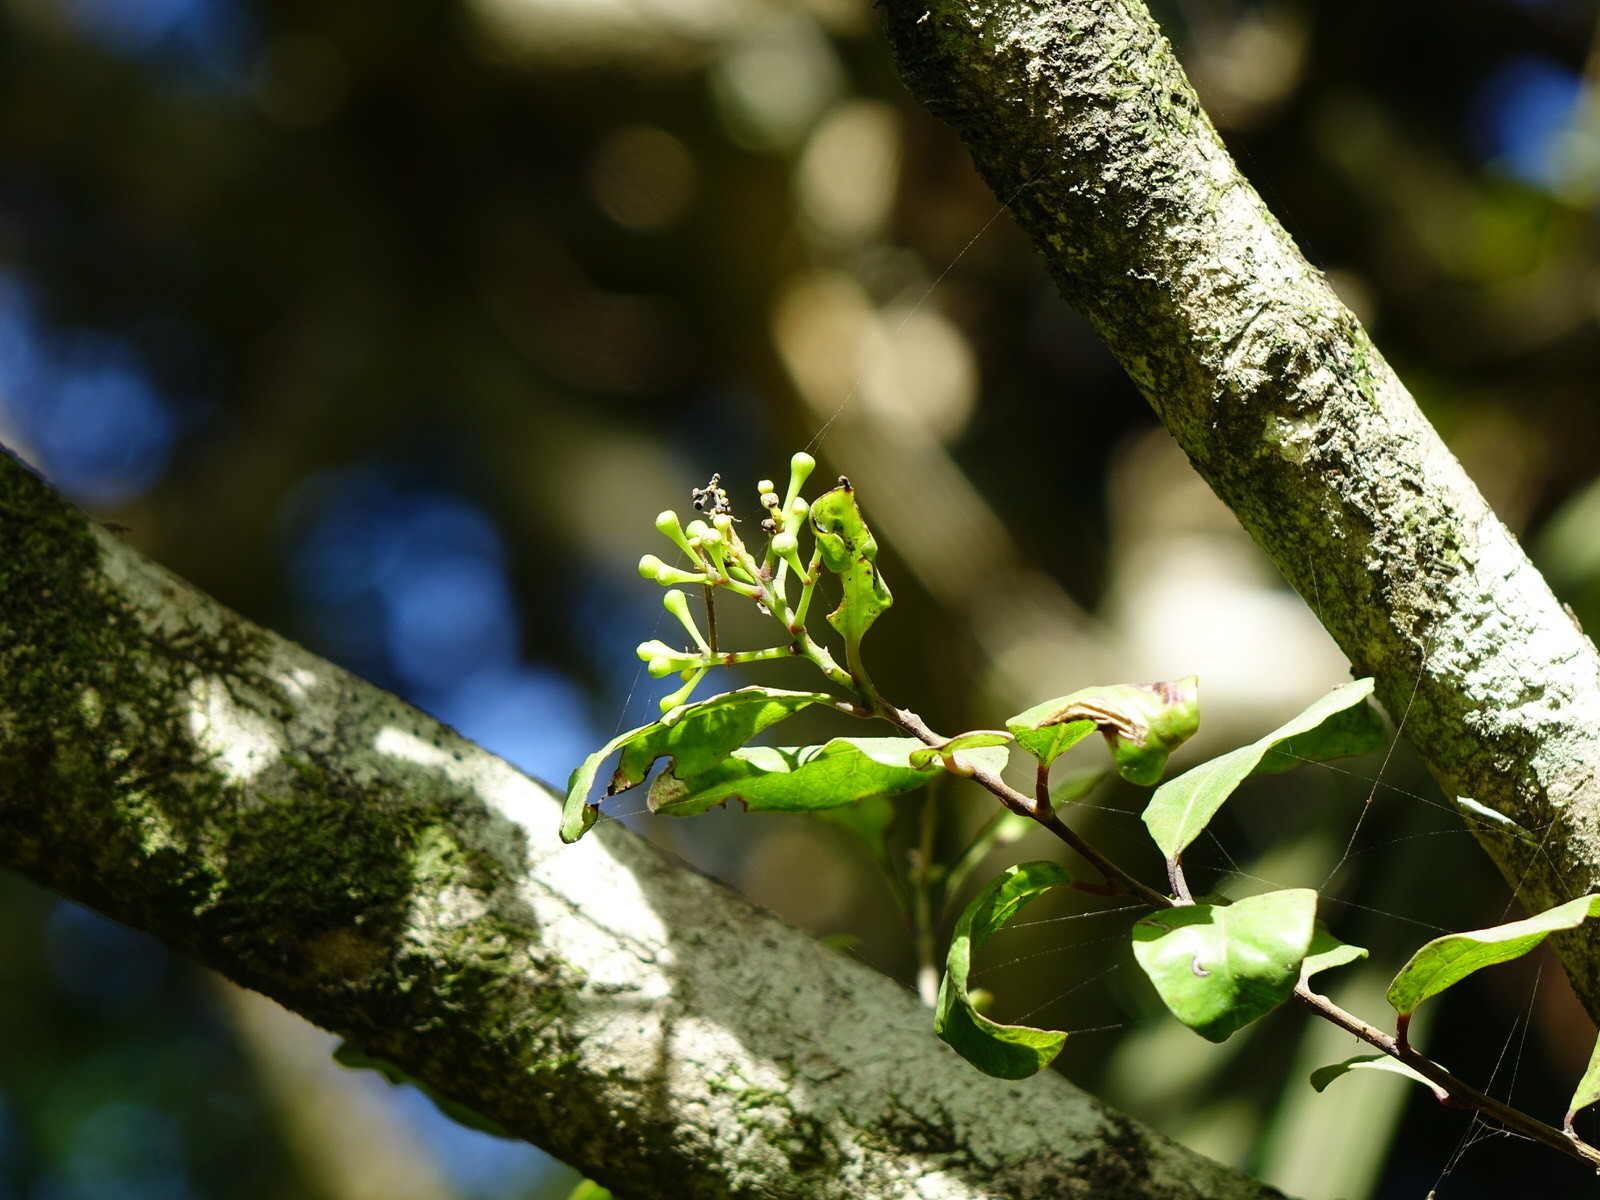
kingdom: Plantae
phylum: Tracheophyta
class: Magnoliopsida
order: Myrtales
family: Myrtaceae
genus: Syzygium
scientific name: Syzygium maire
